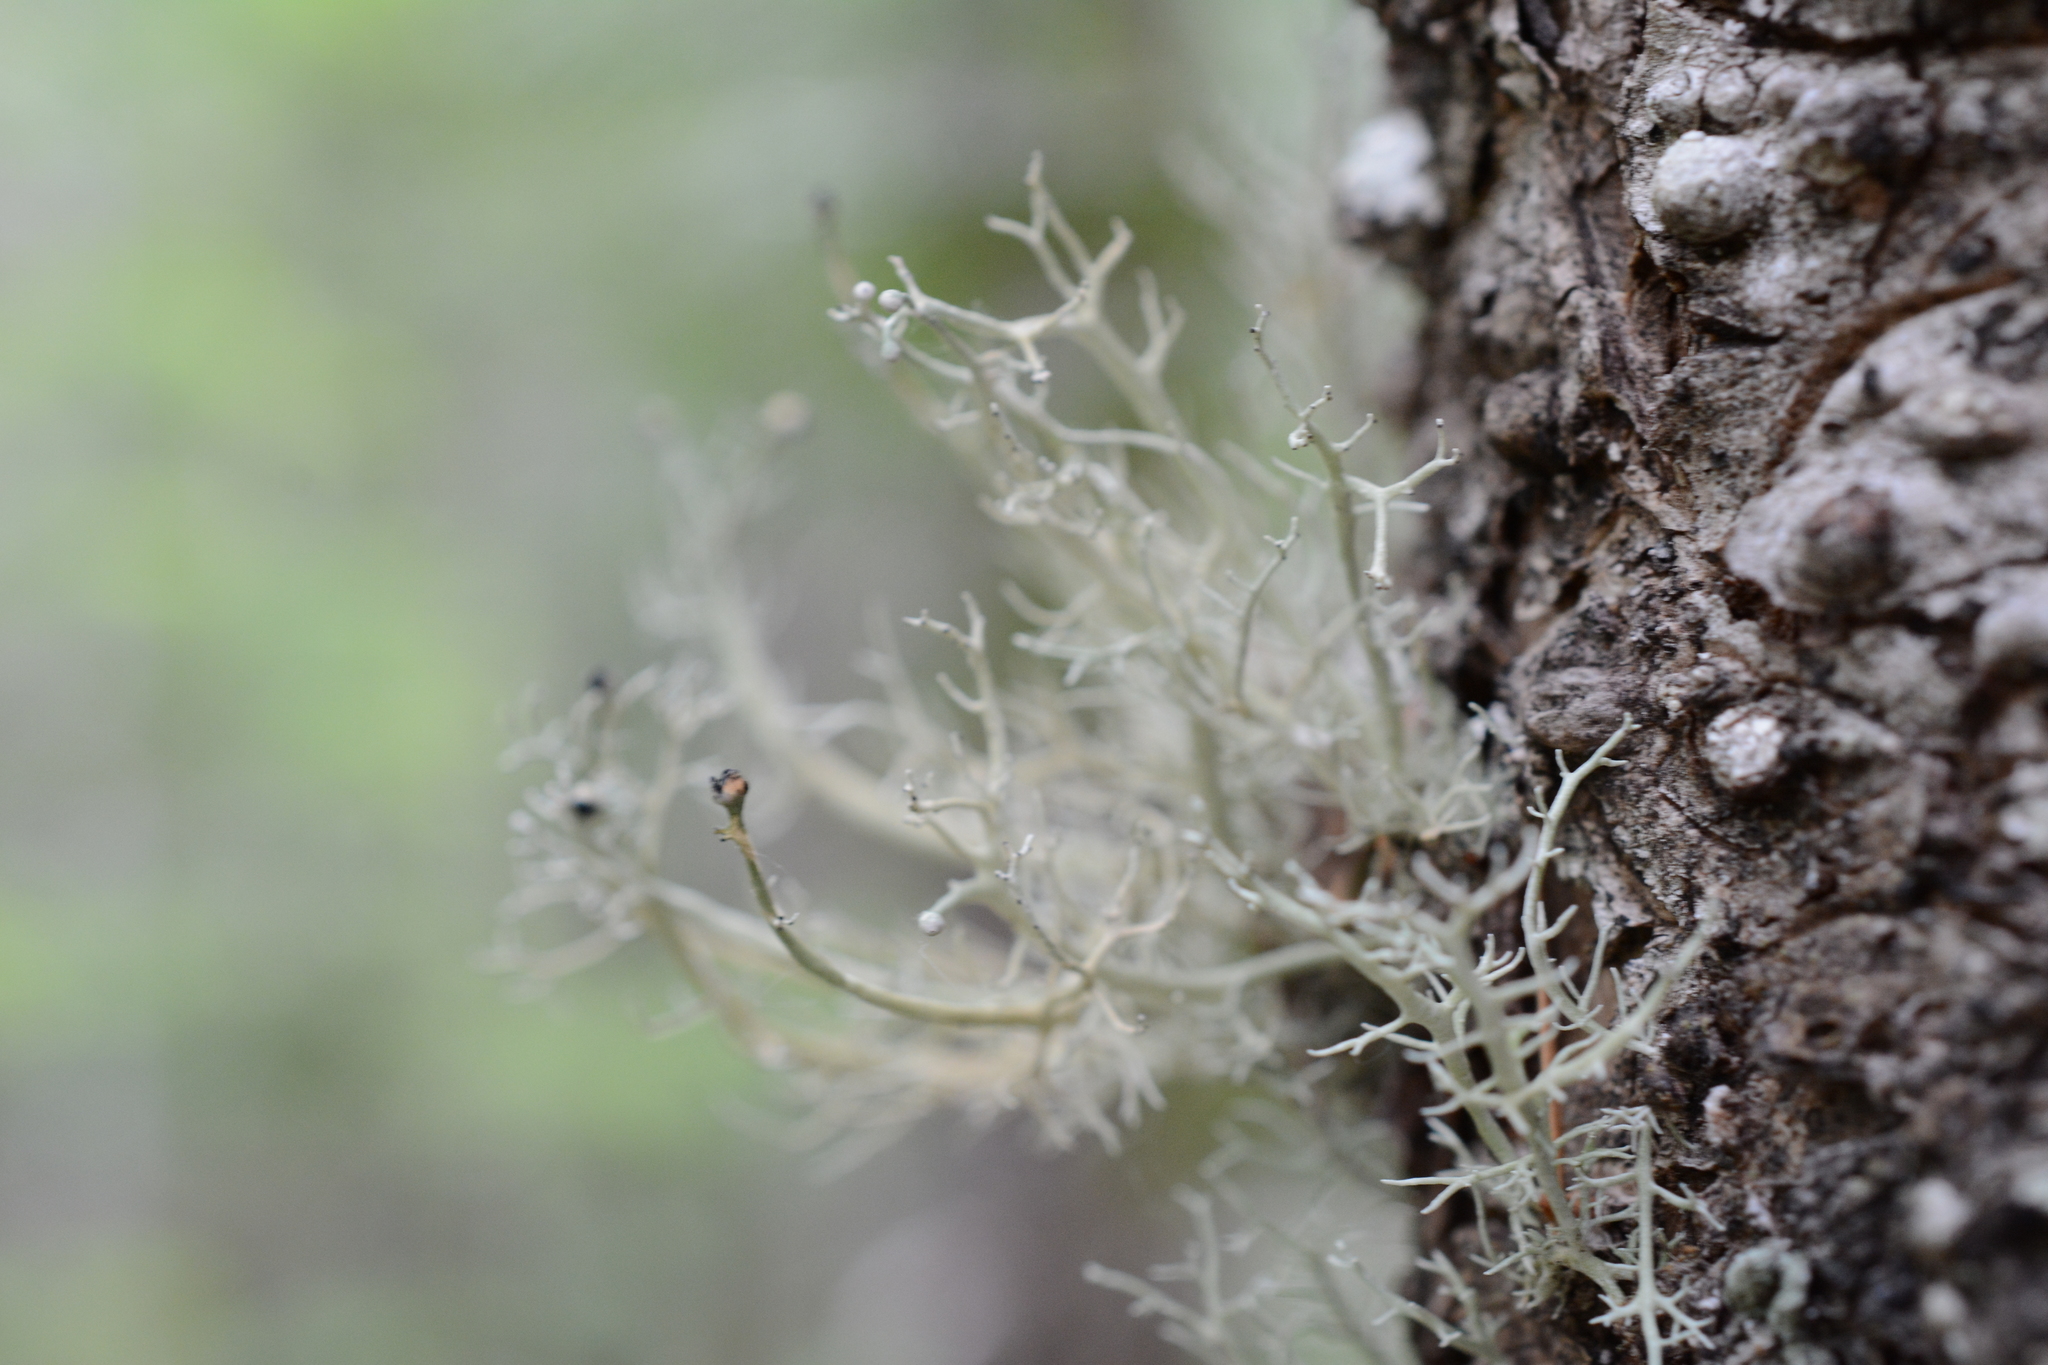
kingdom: Fungi
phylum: Ascomycota
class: Lecanoromycetes
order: Lecanorales
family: Sphaerophoraceae
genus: Sphaerophorus
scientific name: Sphaerophorus globosus
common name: Globe ball lichen
